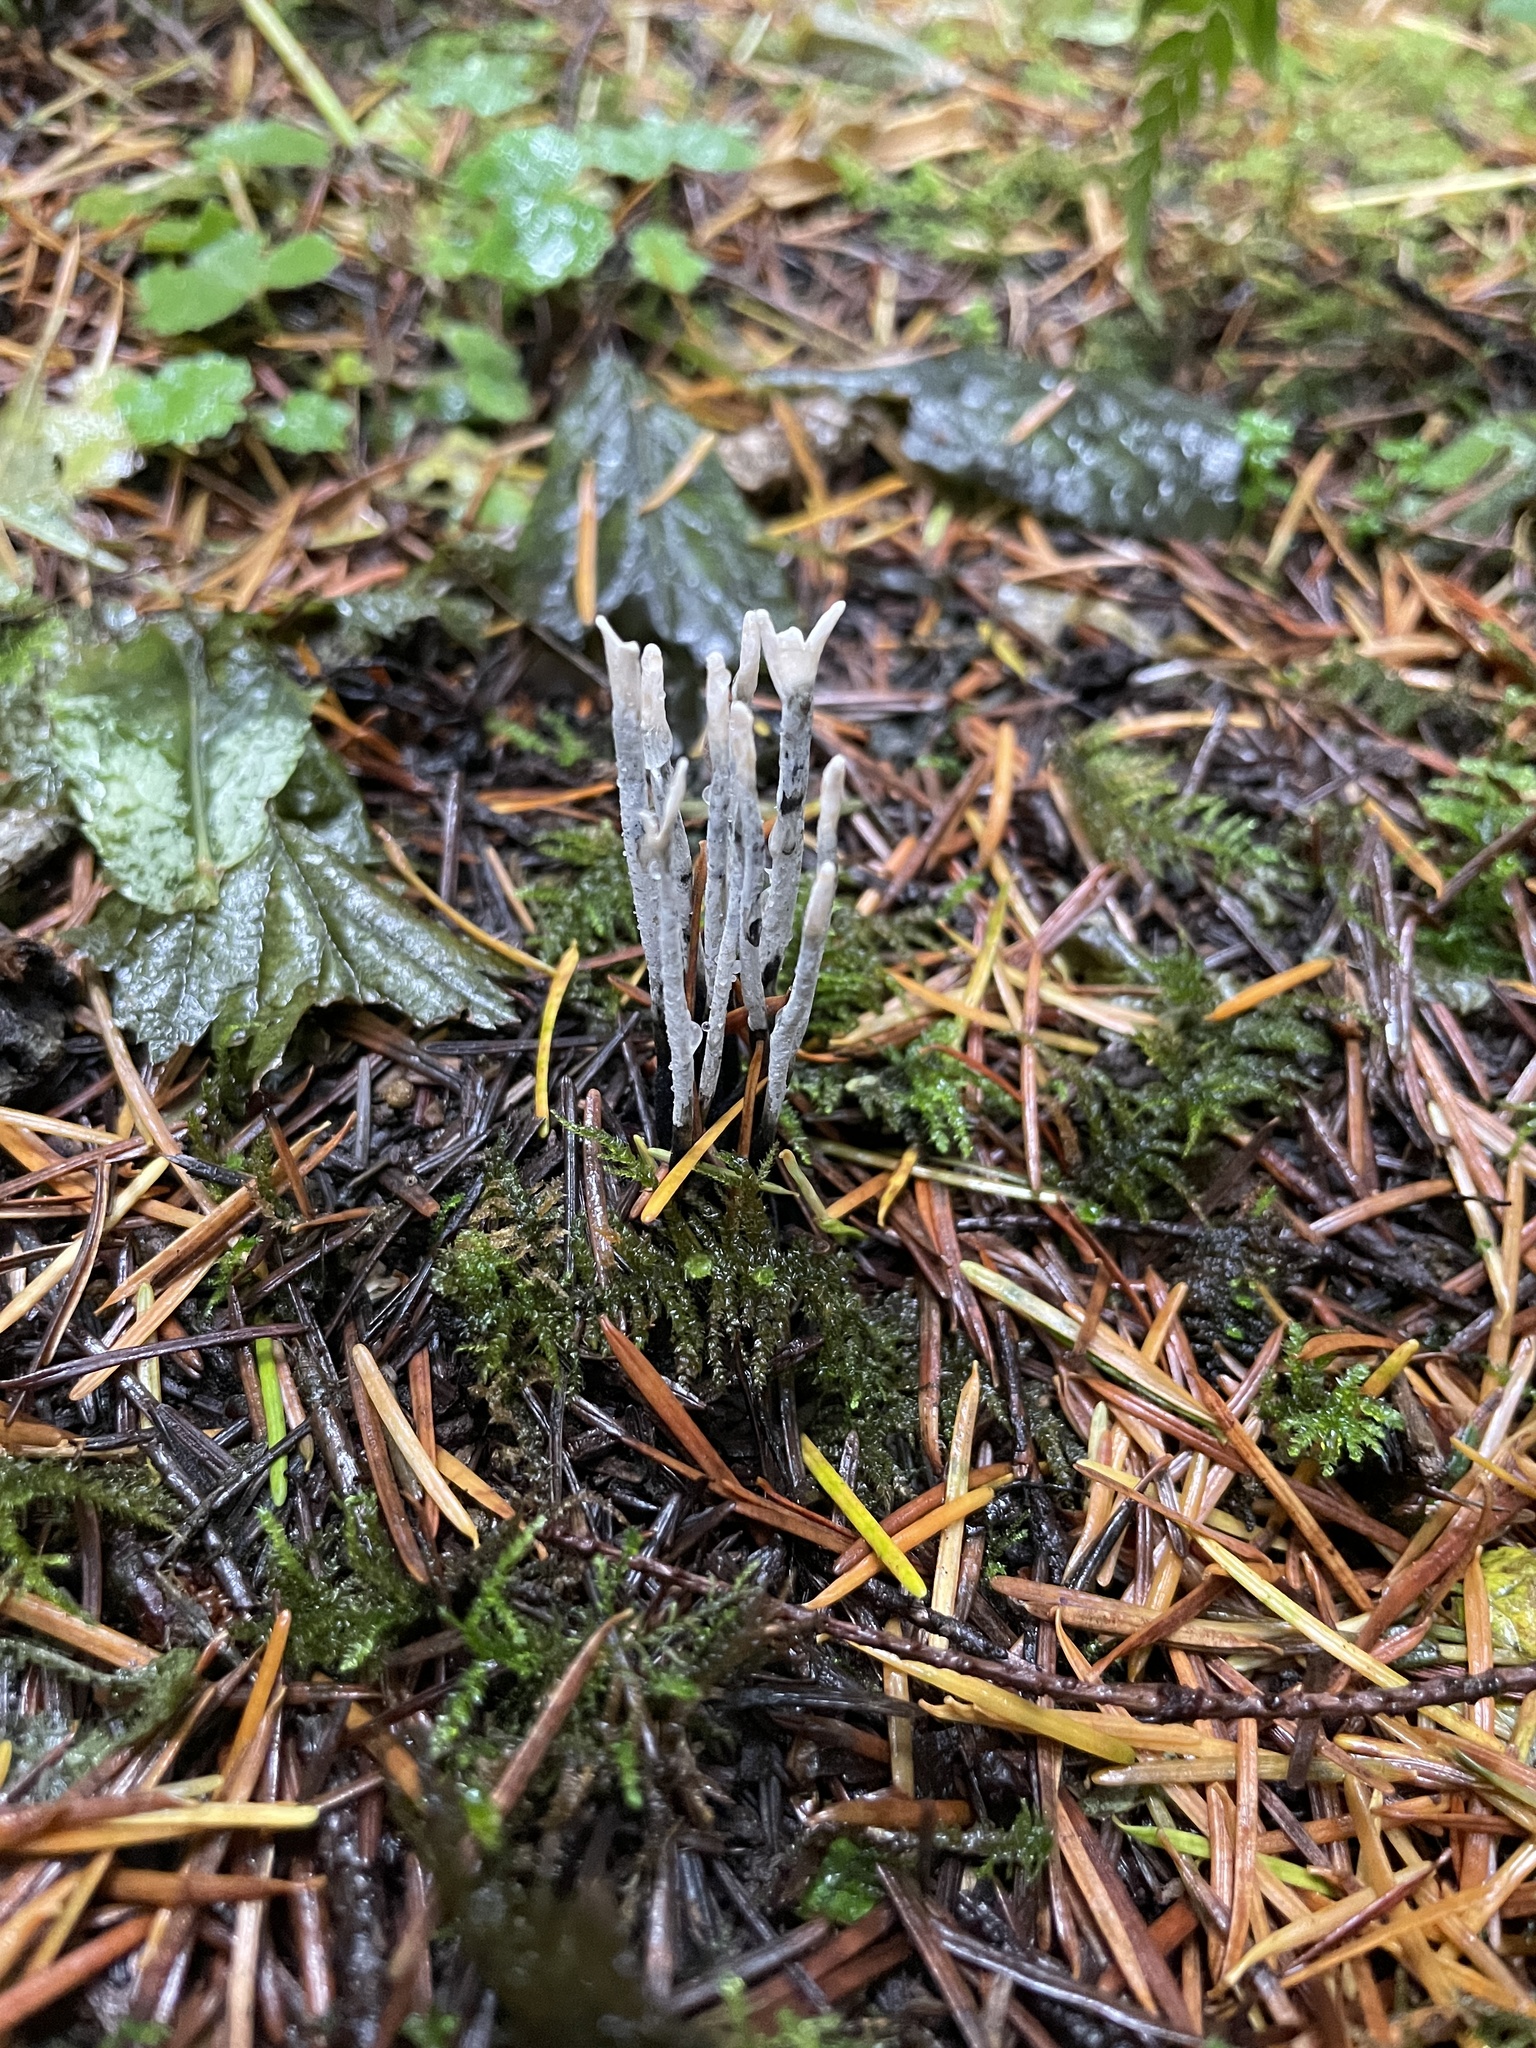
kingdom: Fungi
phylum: Ascomycota
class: Sordariomycetes
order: Xylariales
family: Xylariaceae
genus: Xylaria
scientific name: Xylaria hypoxylon
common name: Candle-snuff fungus
